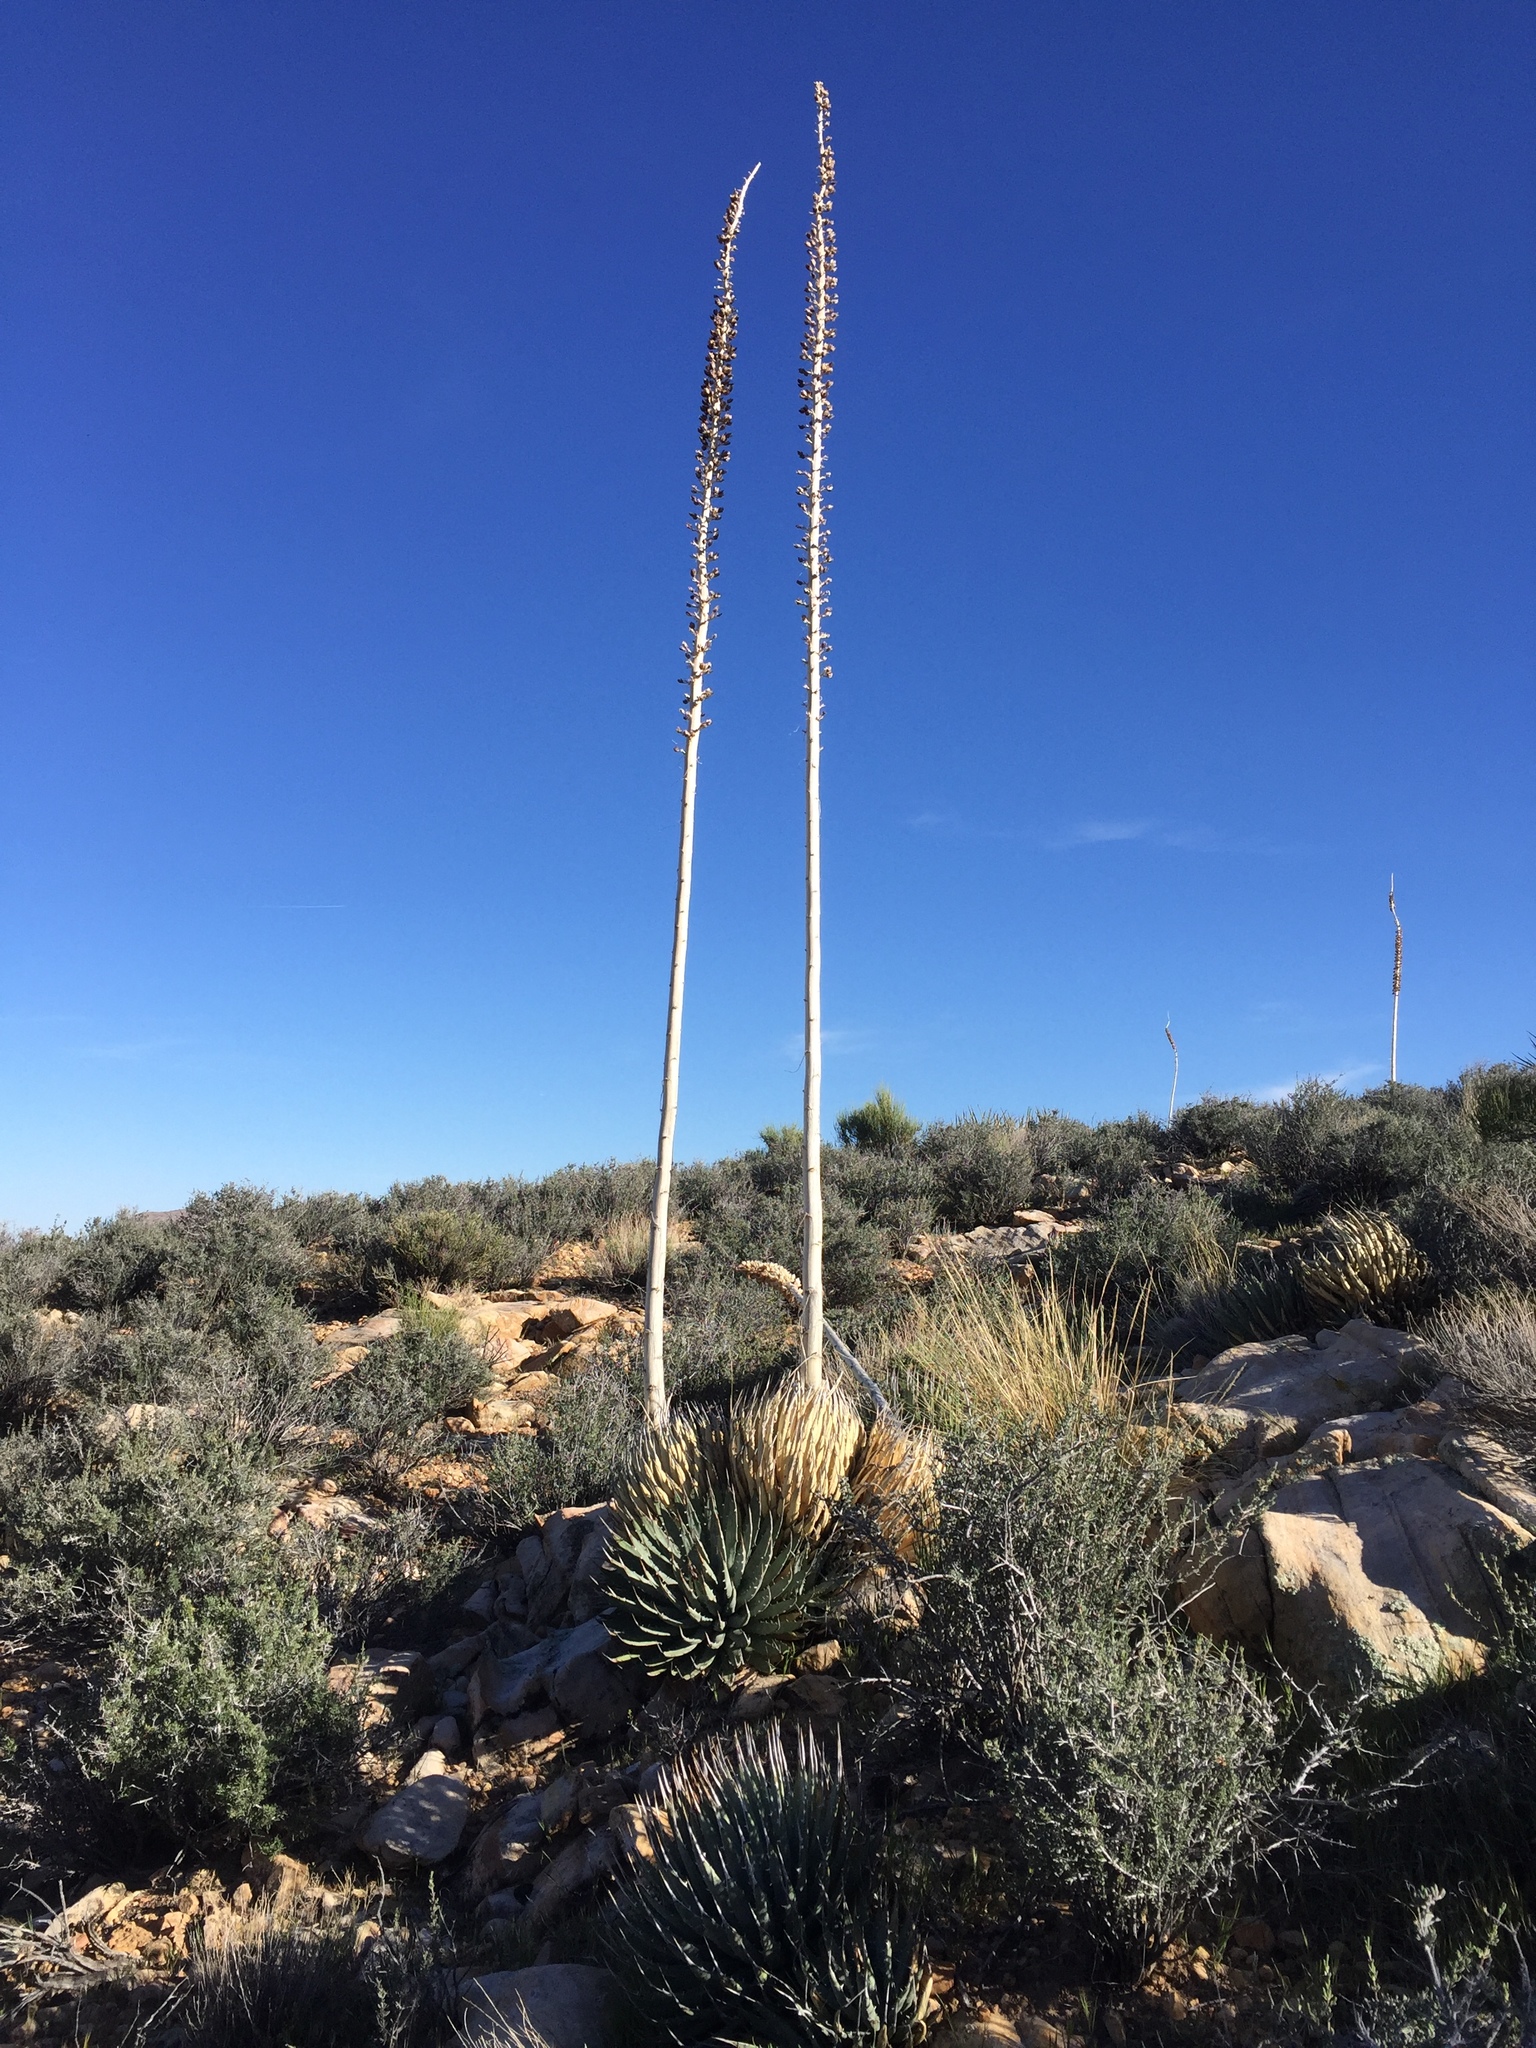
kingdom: Plantae
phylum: Tracheophyta
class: Liliopsida
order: Asparagales
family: Asparagaceae
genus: Agave
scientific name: Agave utahensis
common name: Utah agave
